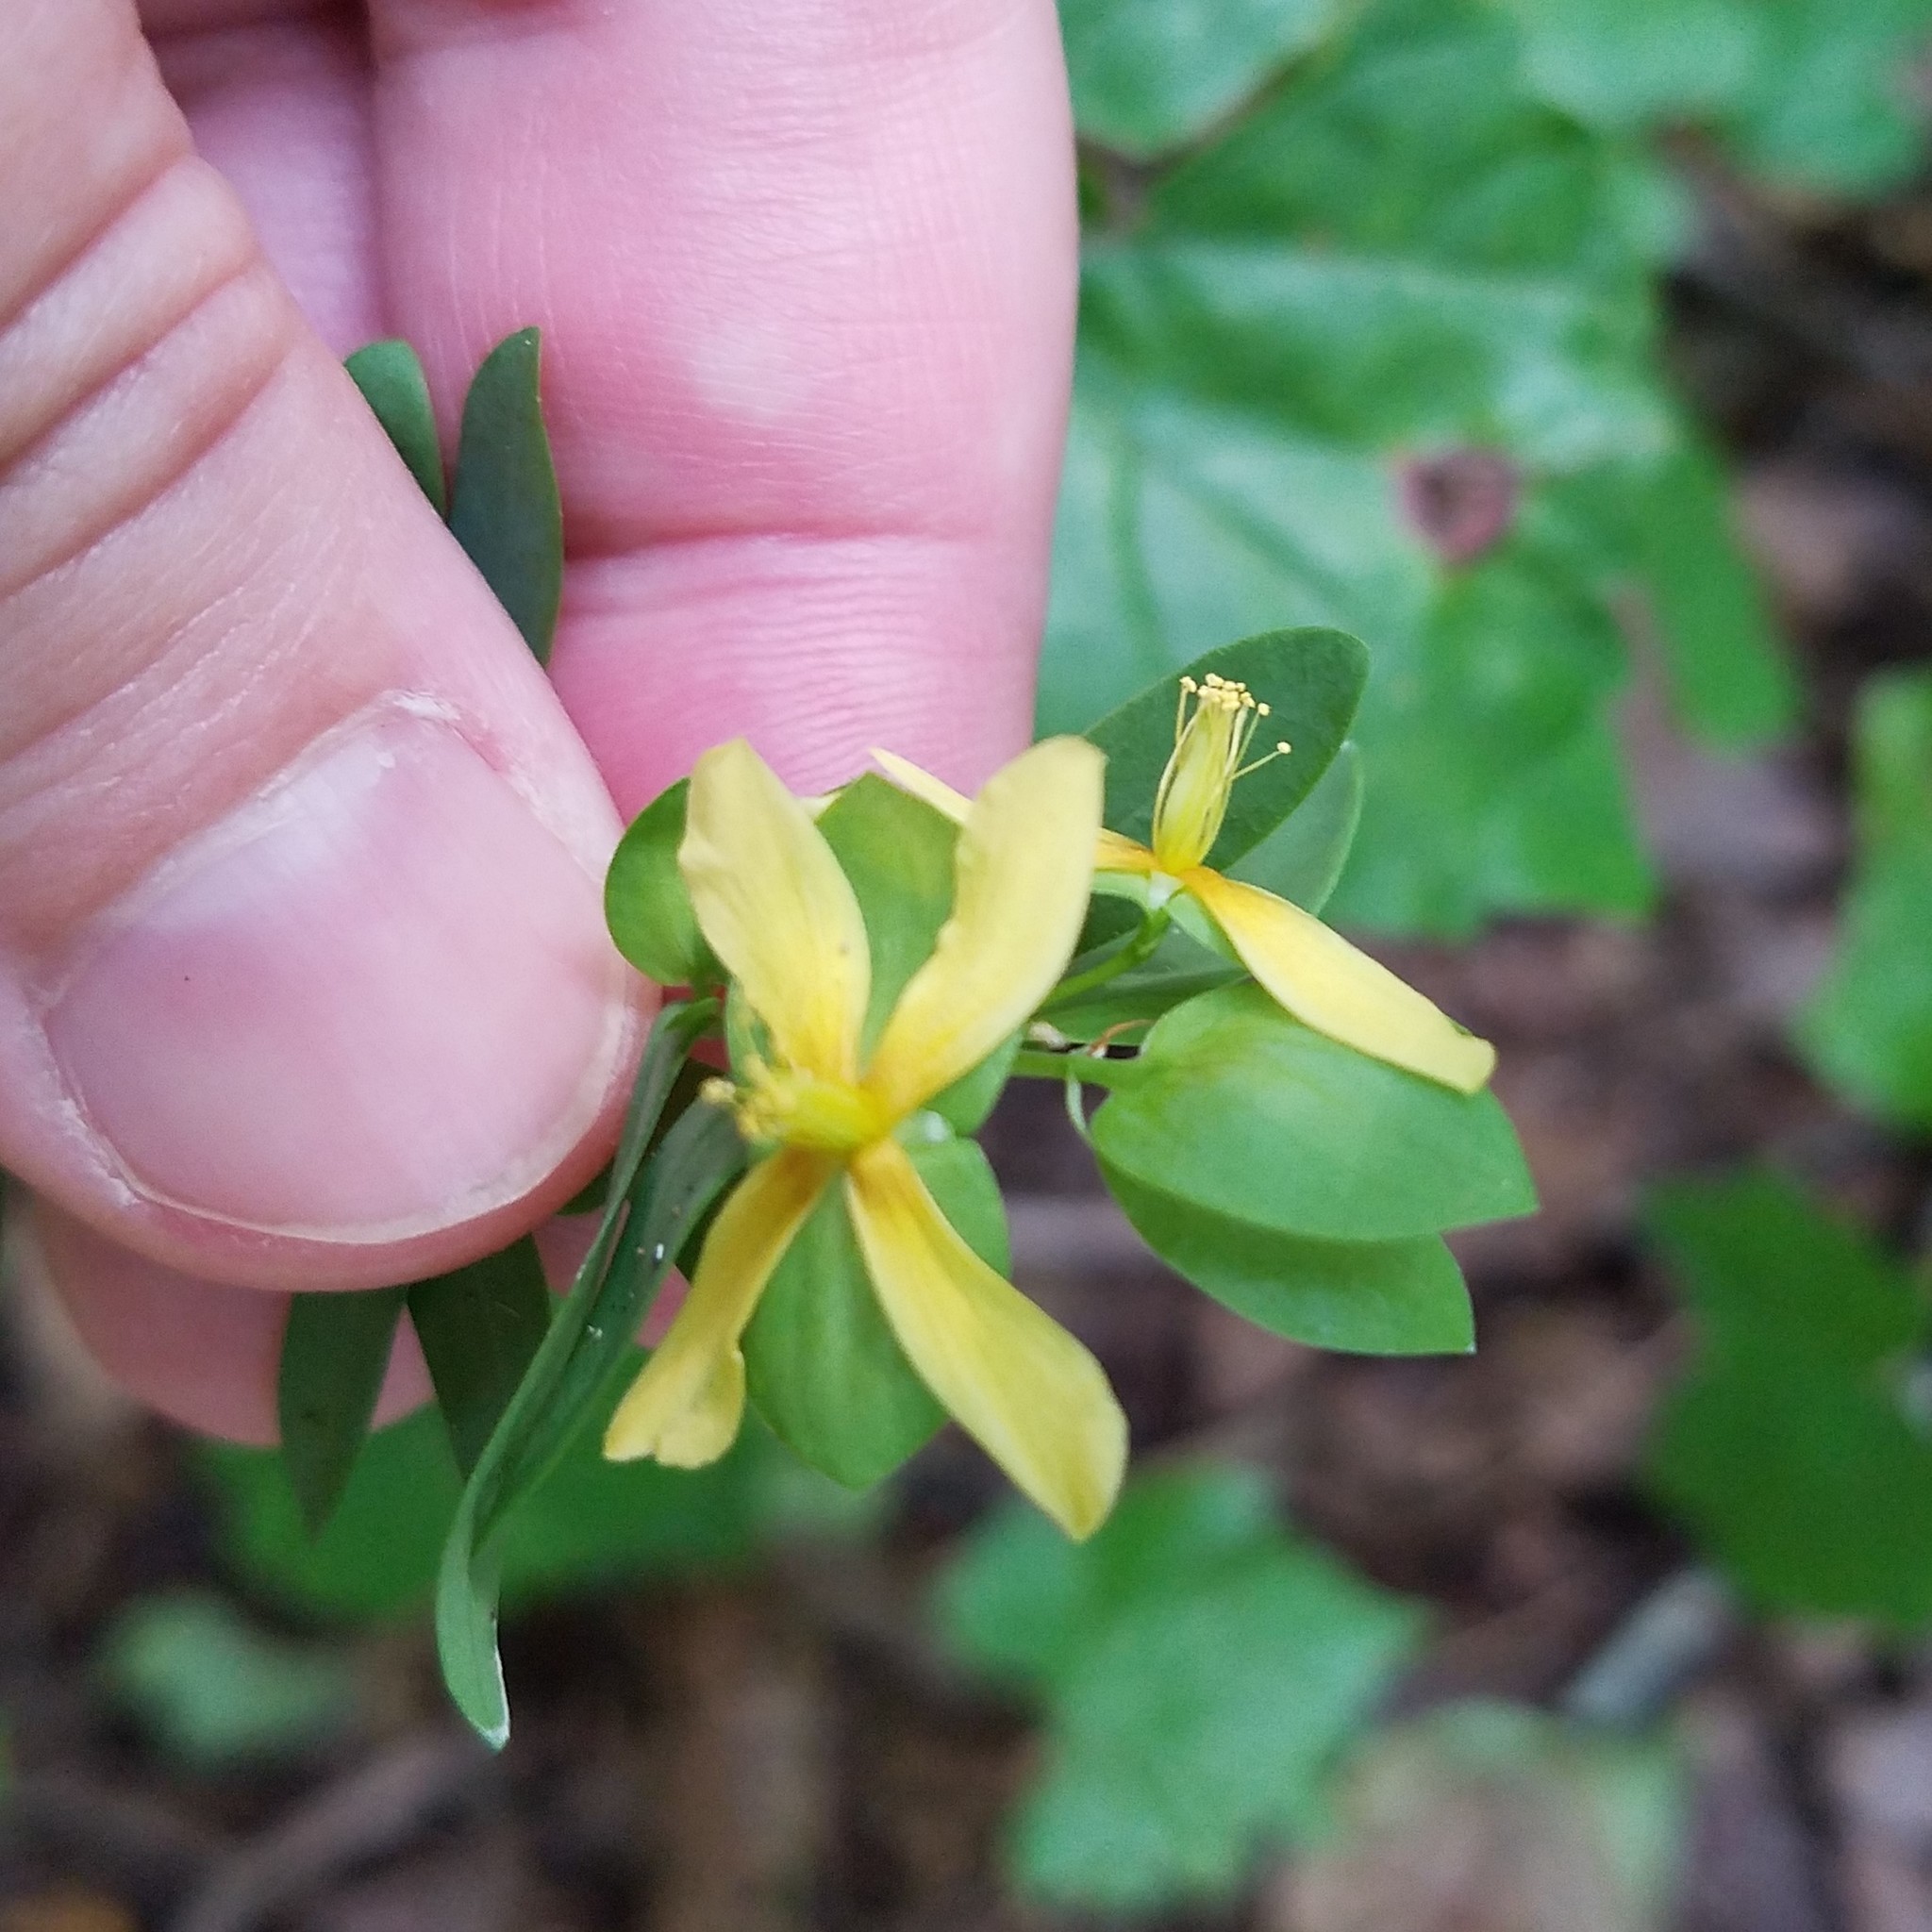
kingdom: Plantae
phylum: Tracheophyta
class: Magnoliopsida
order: Malpighiales
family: Hypericaceae
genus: Hypericum
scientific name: Hypericum hypericoides
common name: St. andrew's cross
